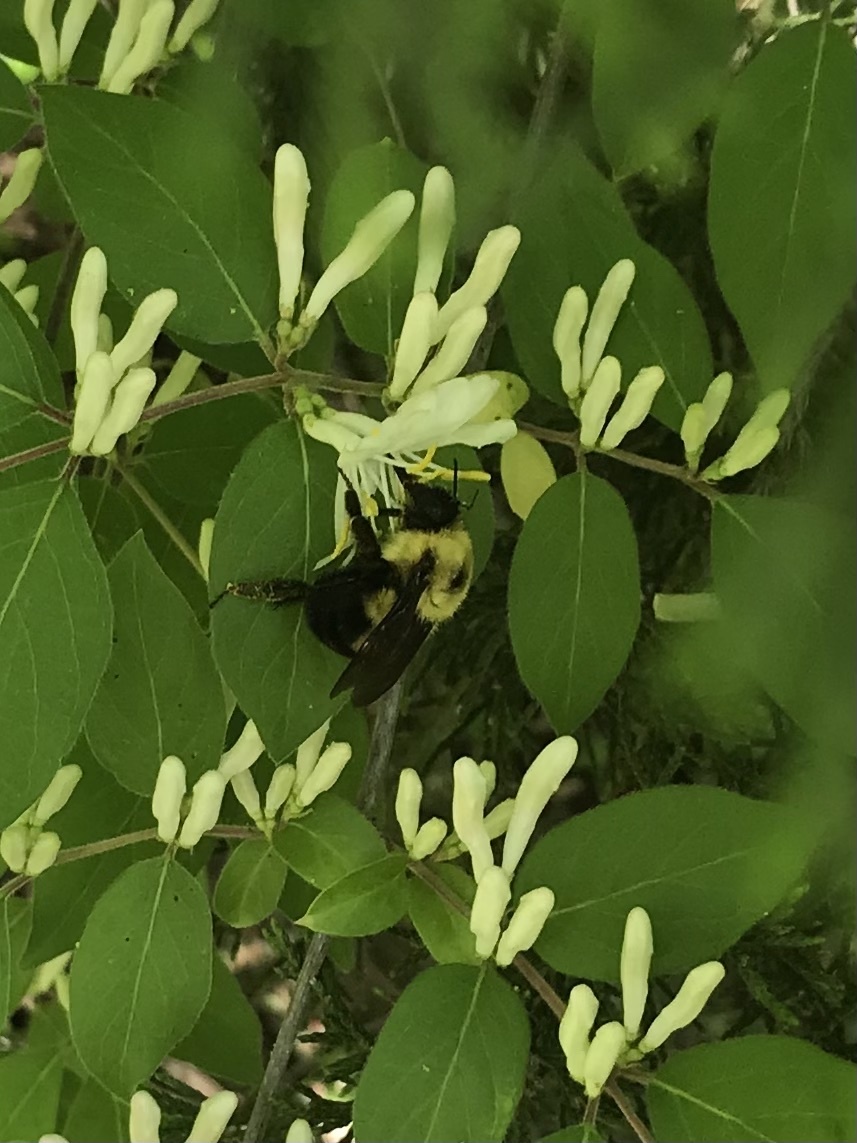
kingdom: Animalia
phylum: Arthropoda
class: Insecta
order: Hymenoptera
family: Apidae
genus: Bombus
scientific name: Bombus bimaculatus
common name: Two-spotted bumble bee
